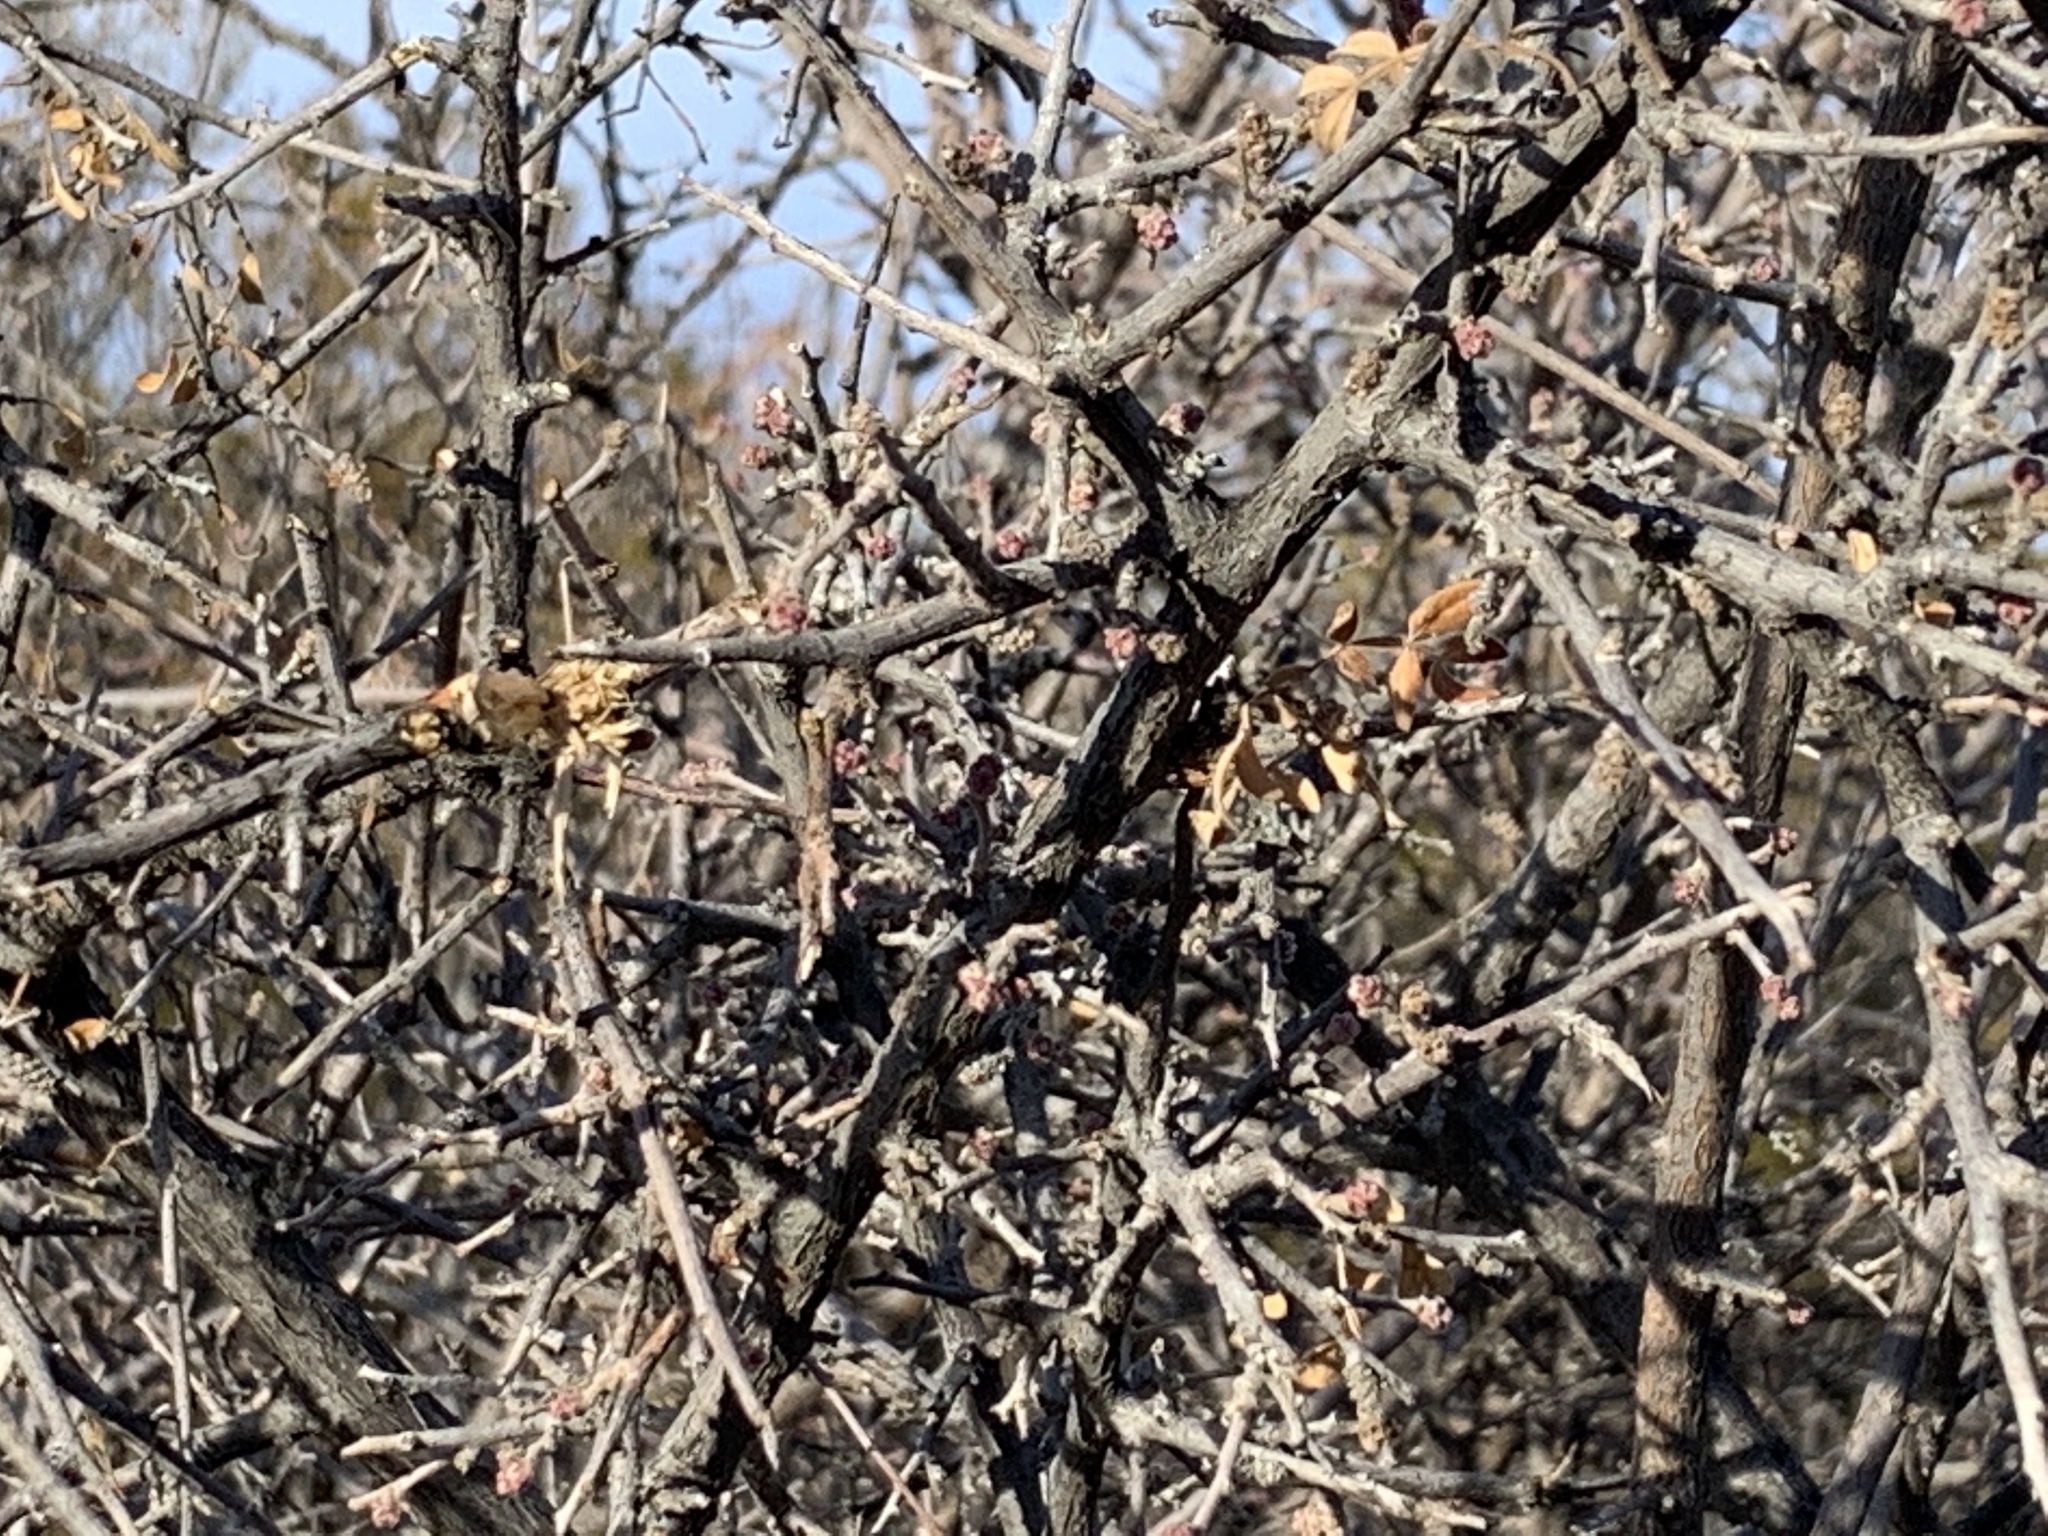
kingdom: Plantae
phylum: Tracheophyta
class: Magnoliopsida
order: Sapindales
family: Anacardiaceae
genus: Rhus
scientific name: Rhus microphylla
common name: Desert sumac
